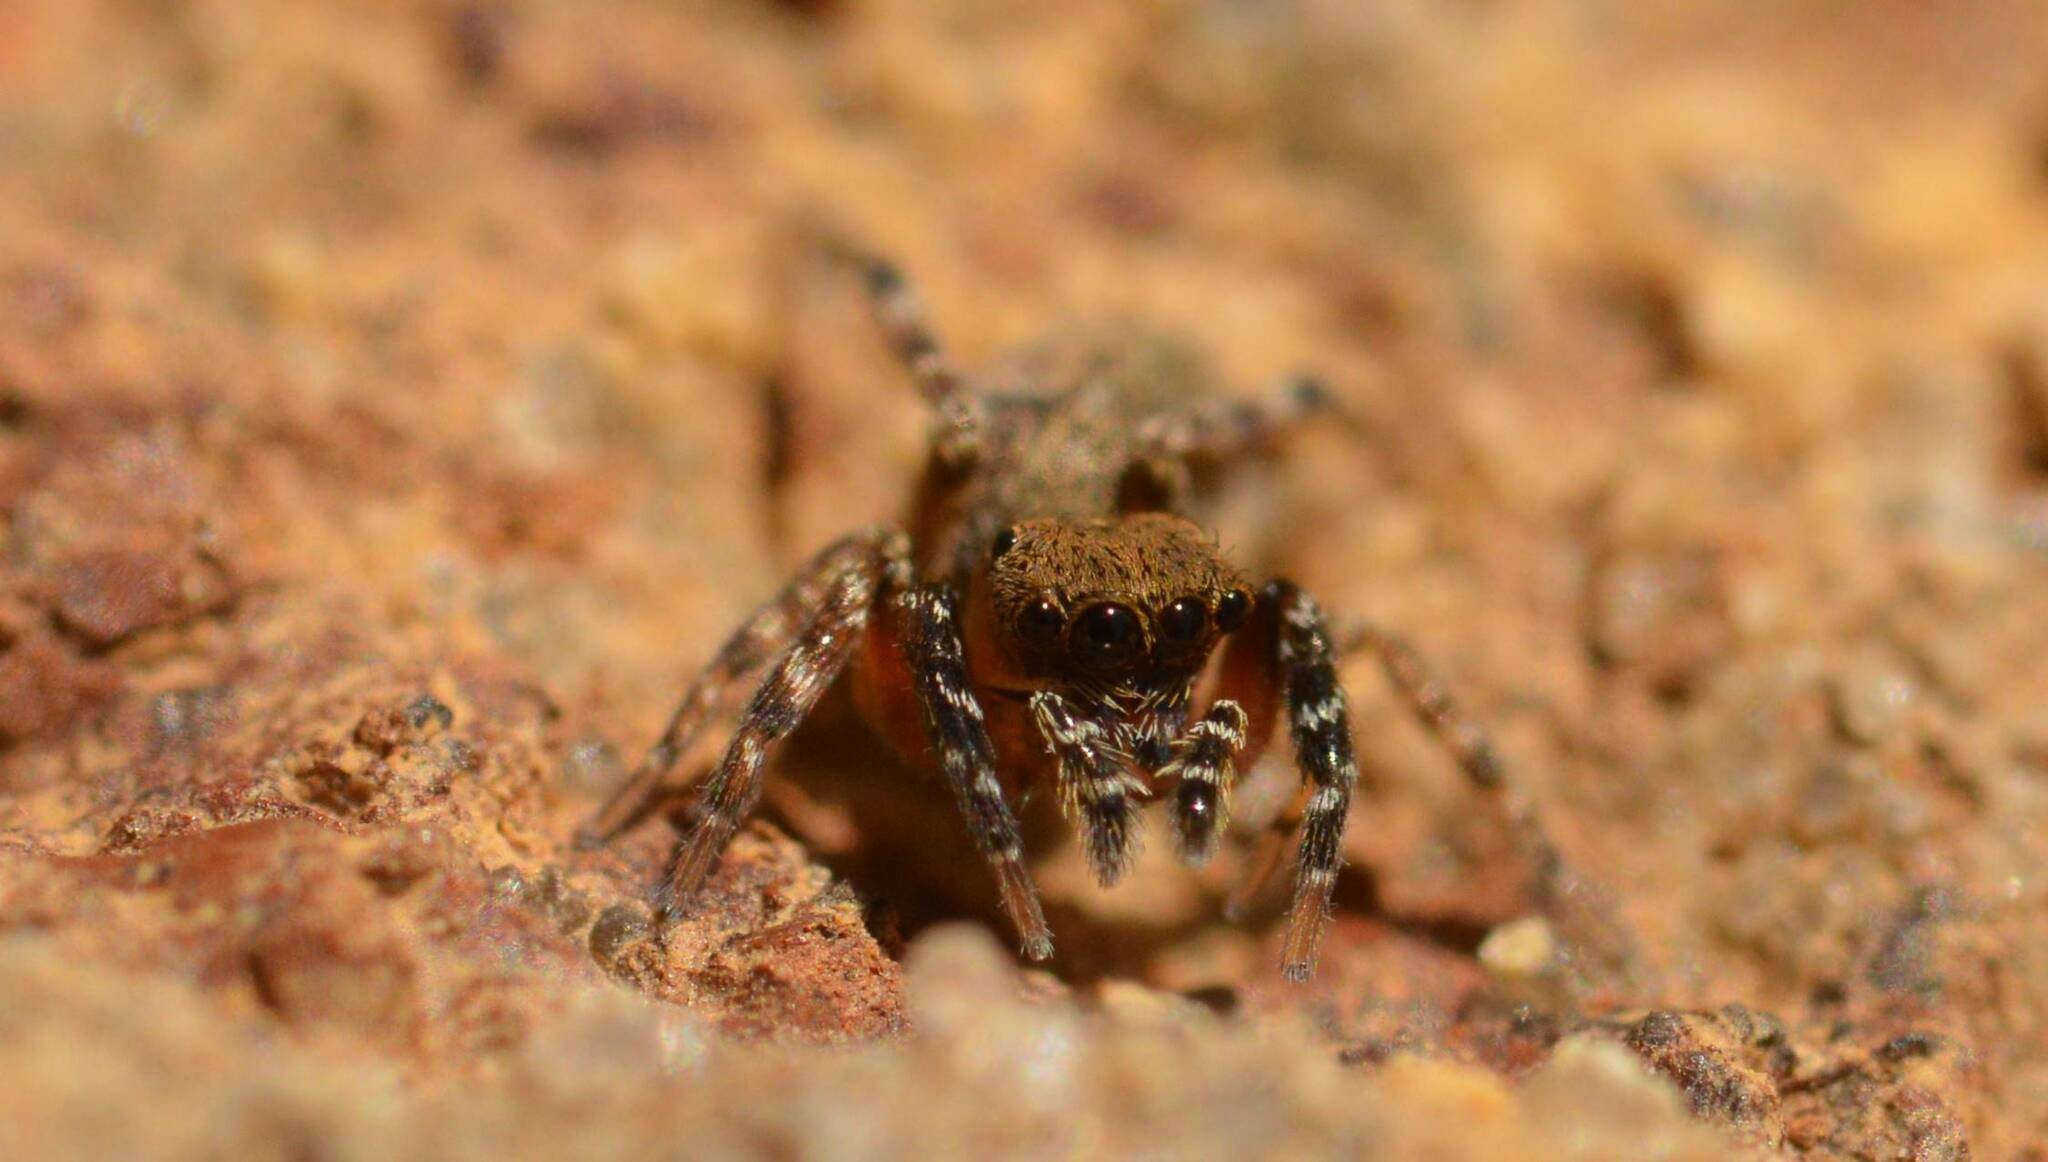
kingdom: Animalia
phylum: Arthropoda
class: Arachnida
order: Araneae
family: Salticidae
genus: Cyrba
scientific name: Cyrba algerina
